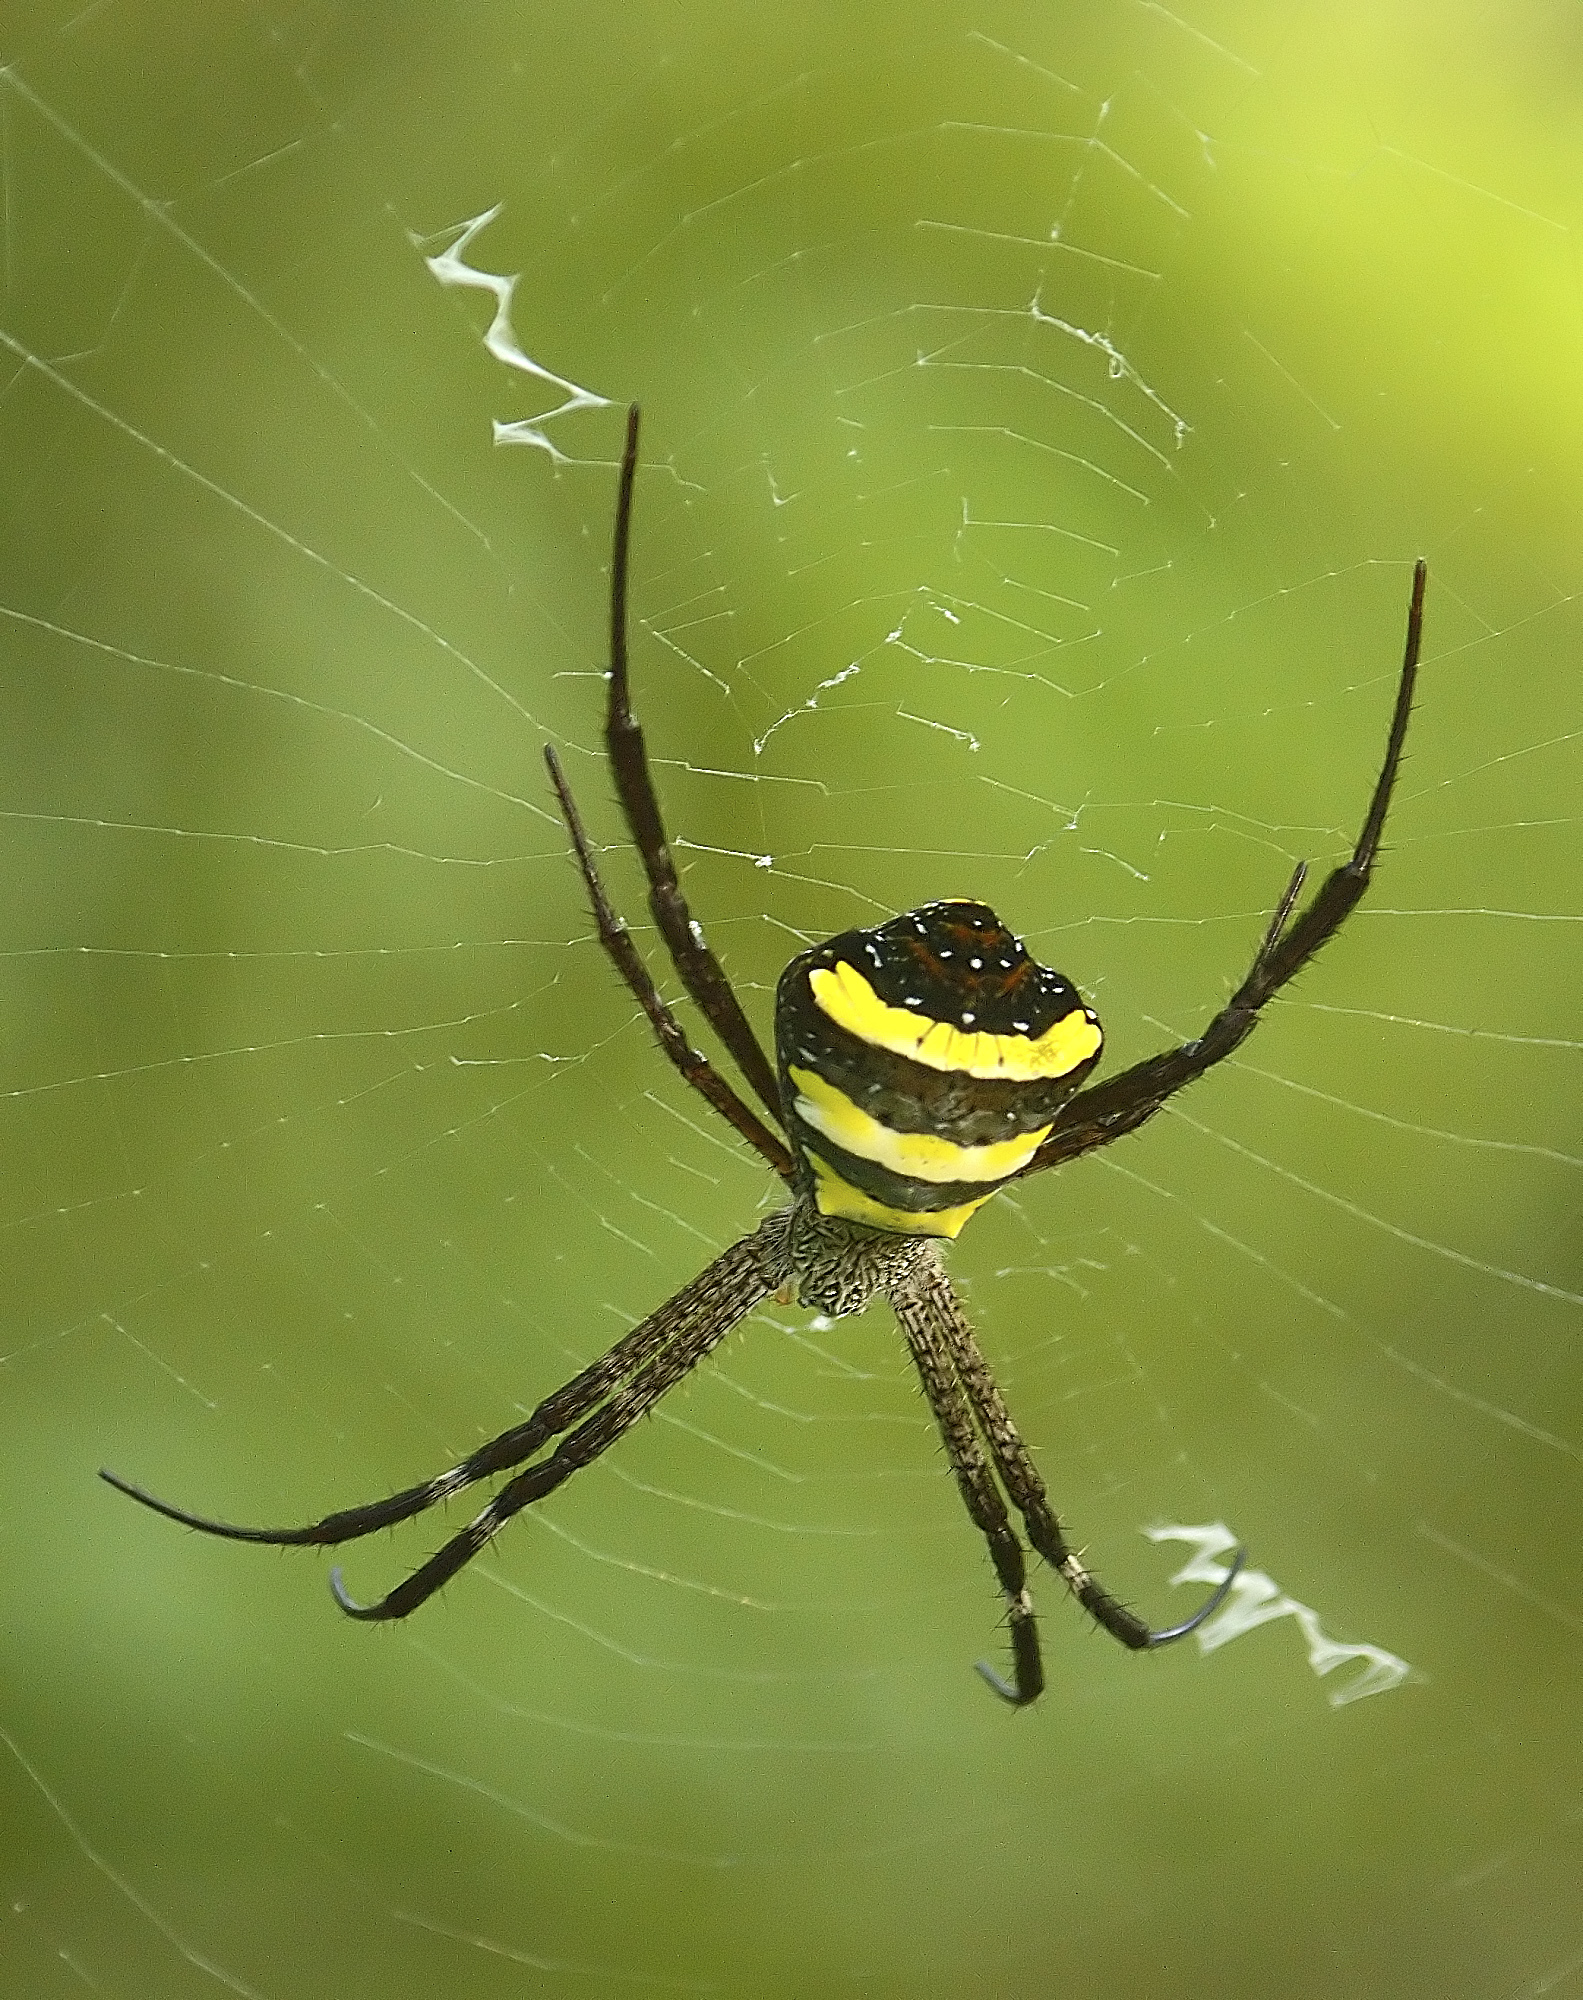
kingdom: Animalia
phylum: Arthropoda
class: Arachnida
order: Araneae
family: Araneidae
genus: Argiope
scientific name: Argiope taprobanica
